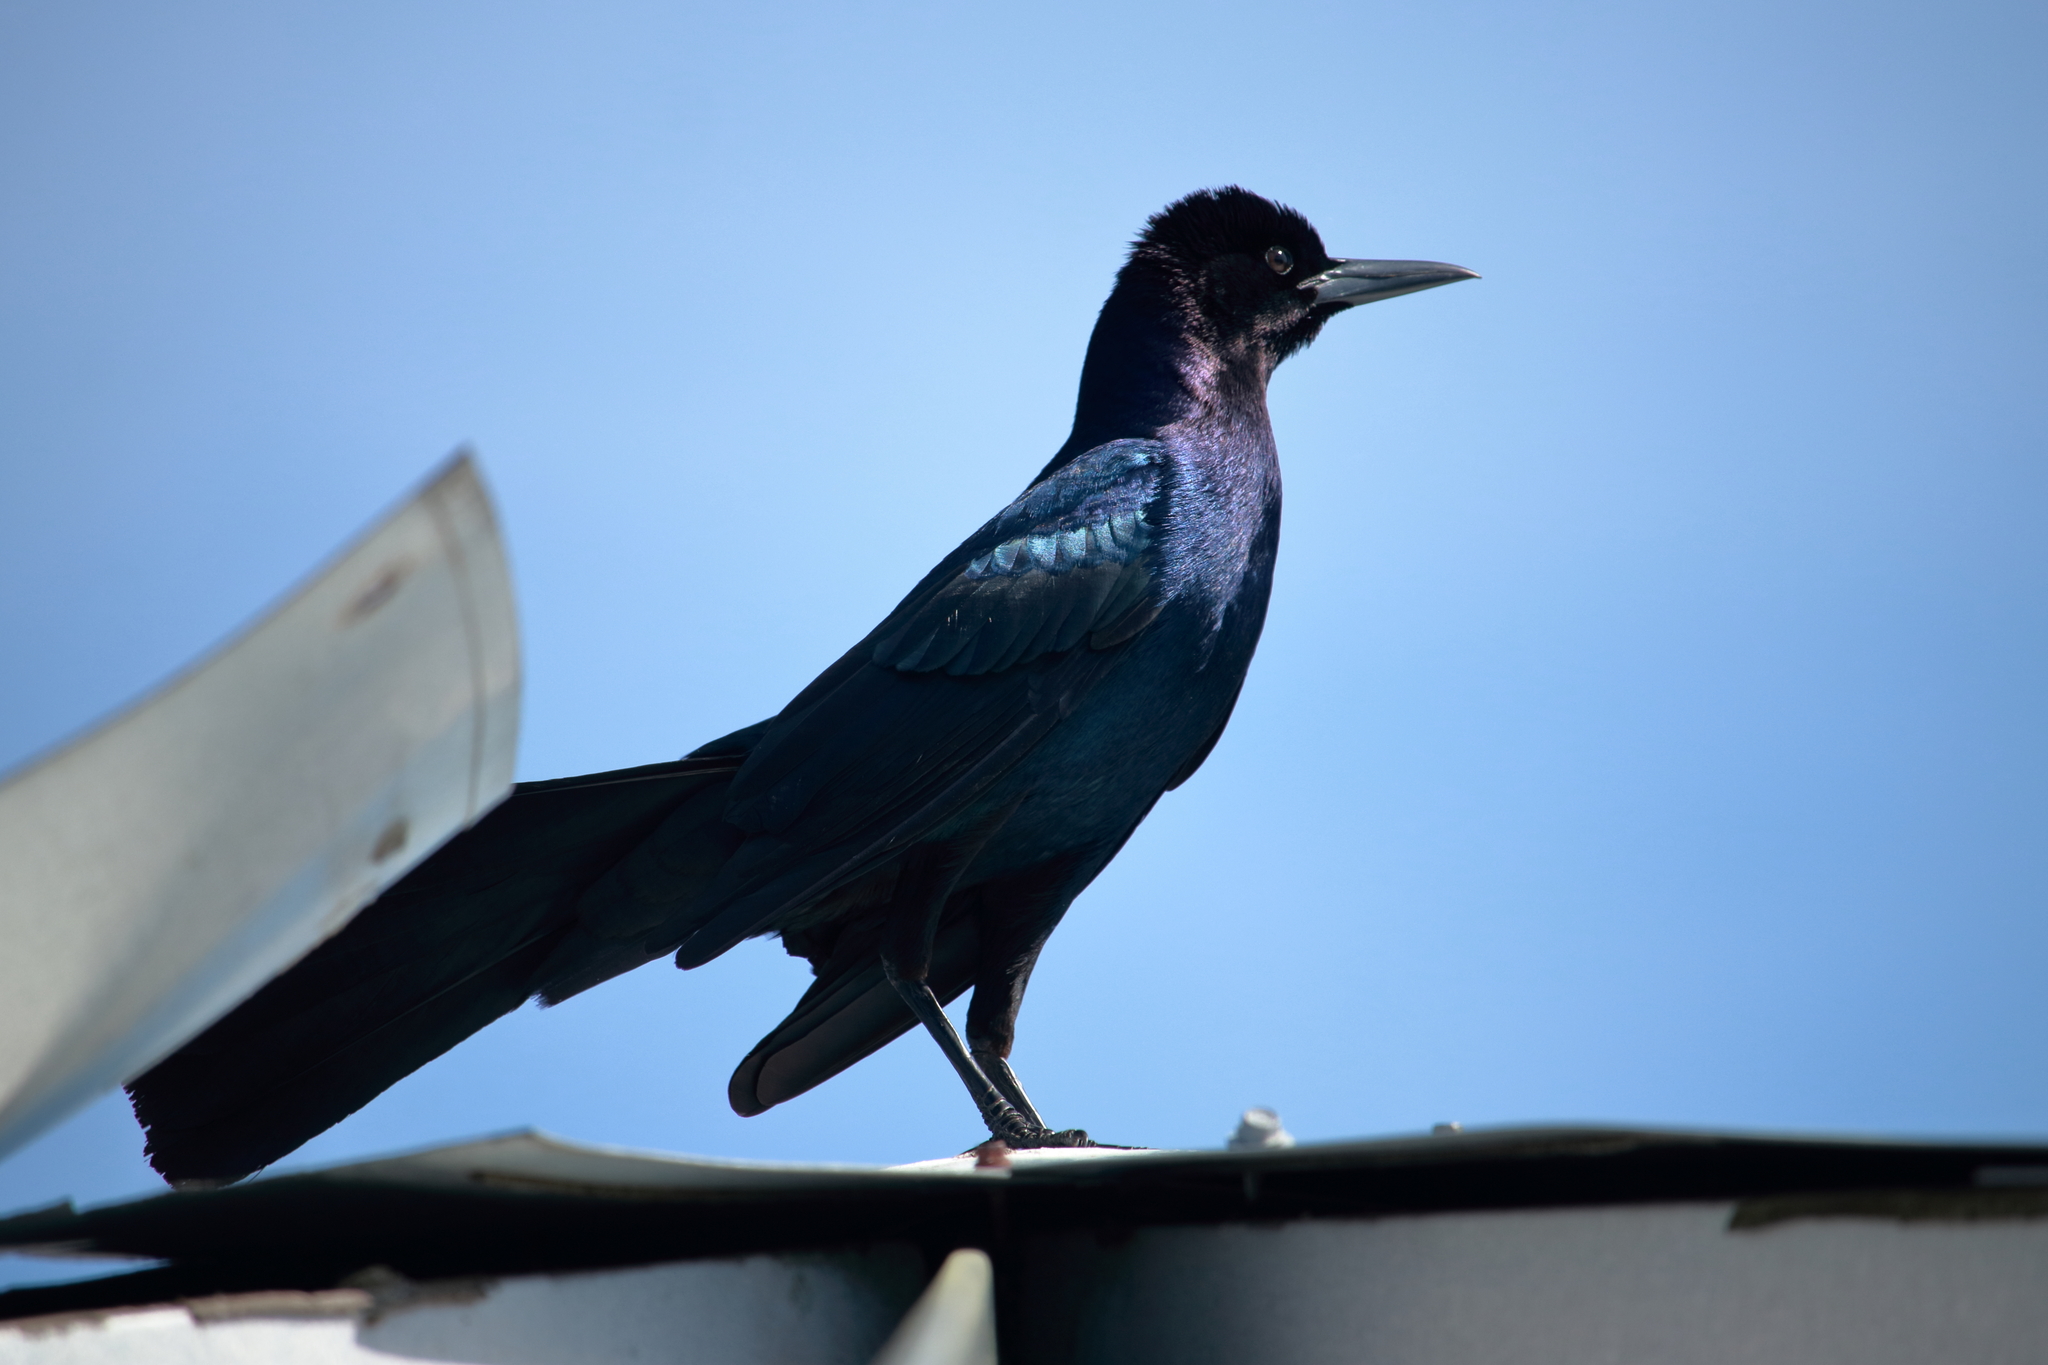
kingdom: Animalia
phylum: Chordata
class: Aves
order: Passeriformes
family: Icteridae
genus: Quiscalus
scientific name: Quiscalus major
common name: Boat-tailed grackle
